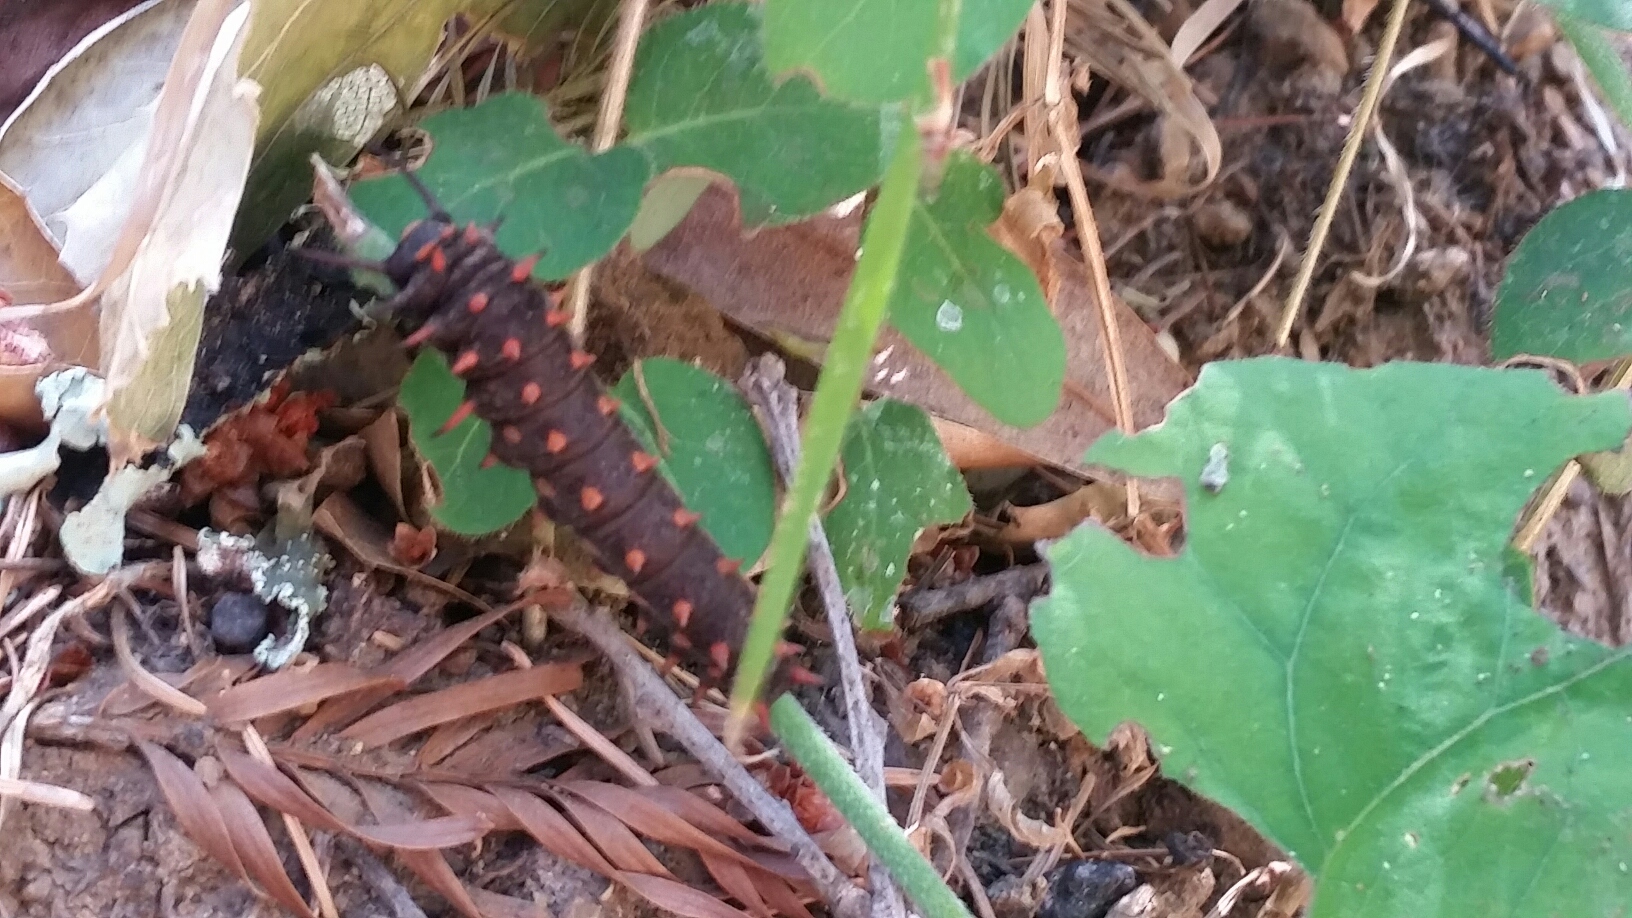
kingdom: Animalia
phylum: Arthropoda
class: Insecta
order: Lepidoptera
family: Papilionidae
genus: Battus
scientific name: Battus philenor
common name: Pipevine swallowtail
